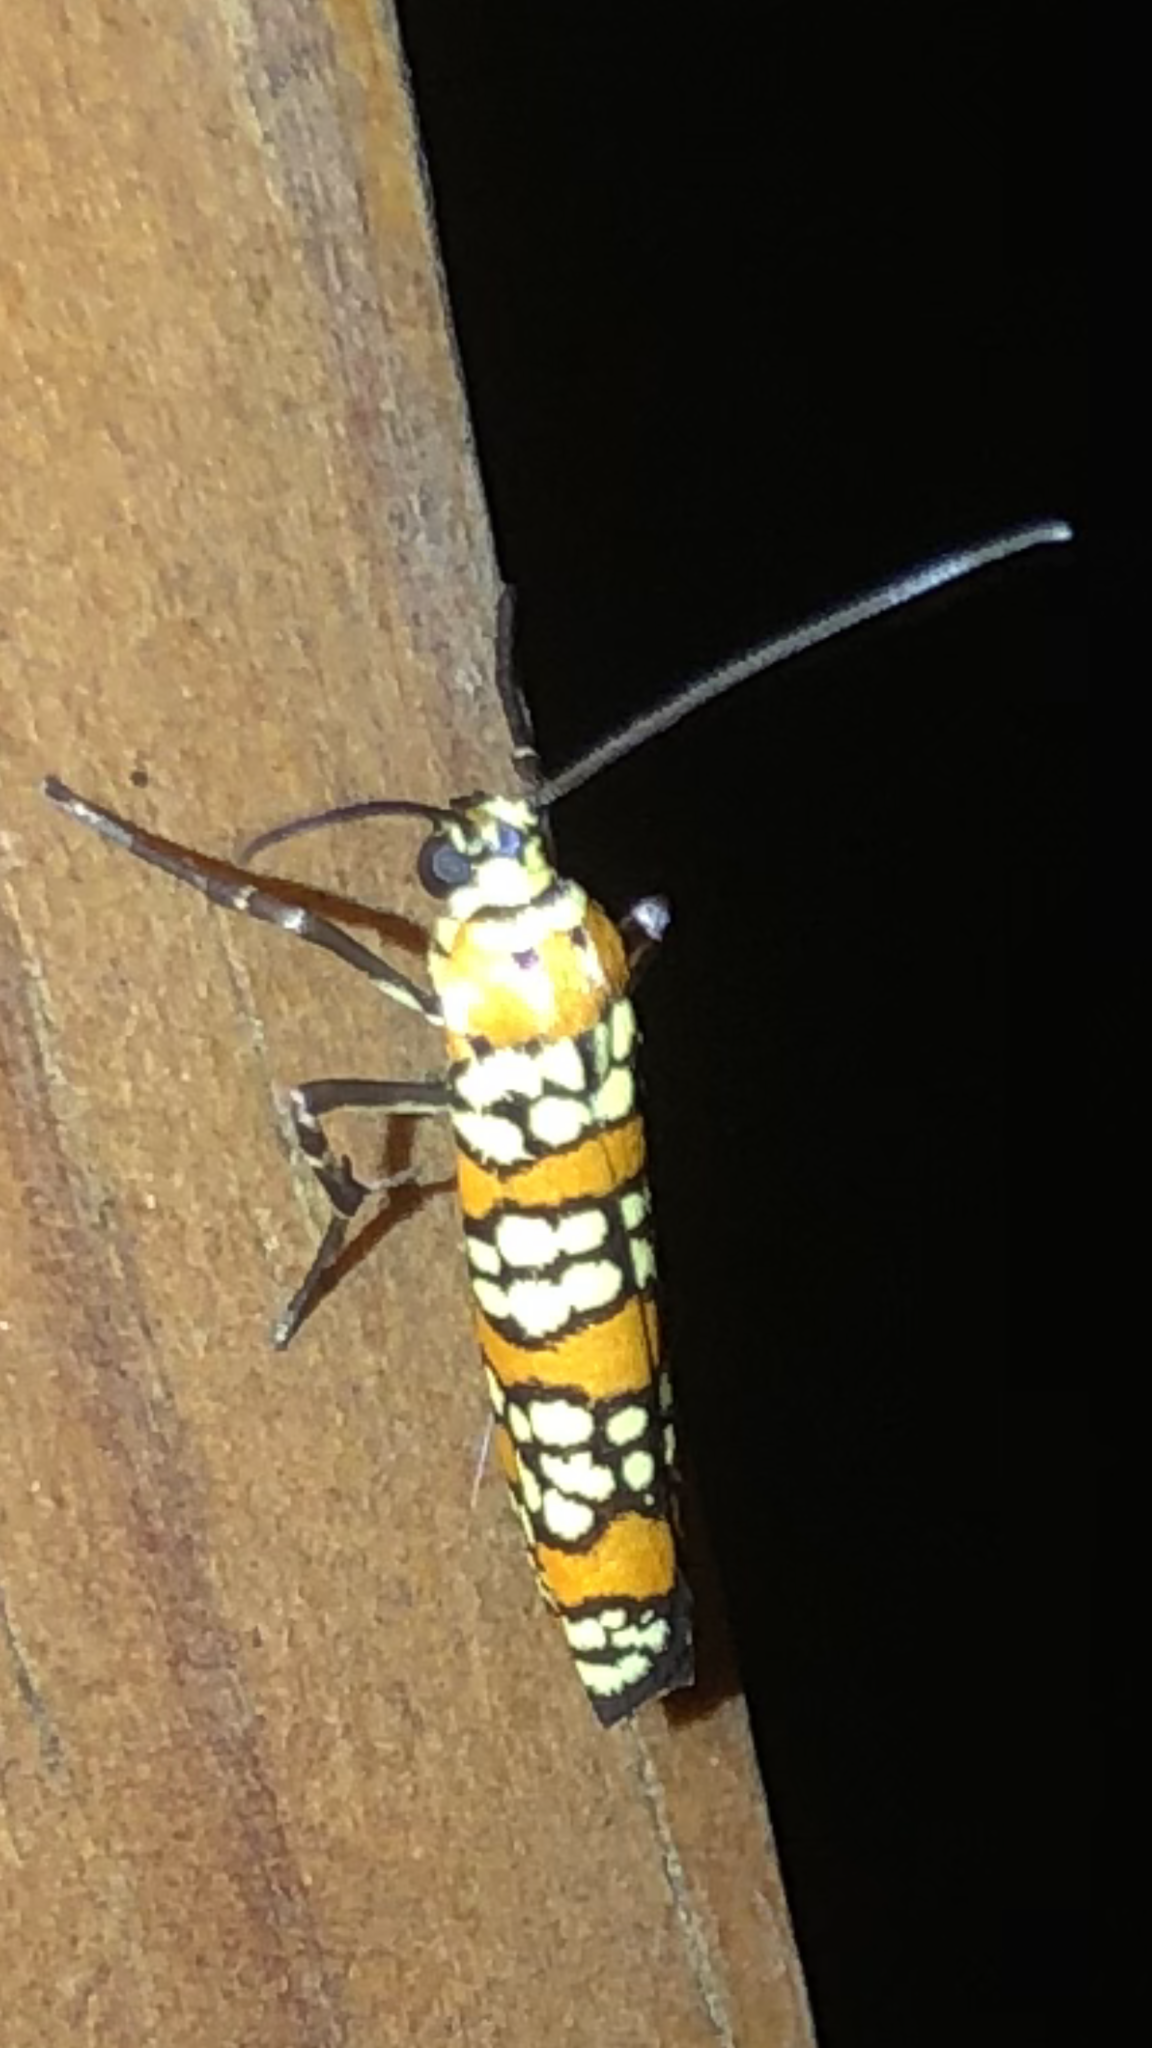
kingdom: Animalia
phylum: Arthropoda
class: Insecta
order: Lepidoptera
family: Attevidae
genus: Atteva
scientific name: Atteva punctella
